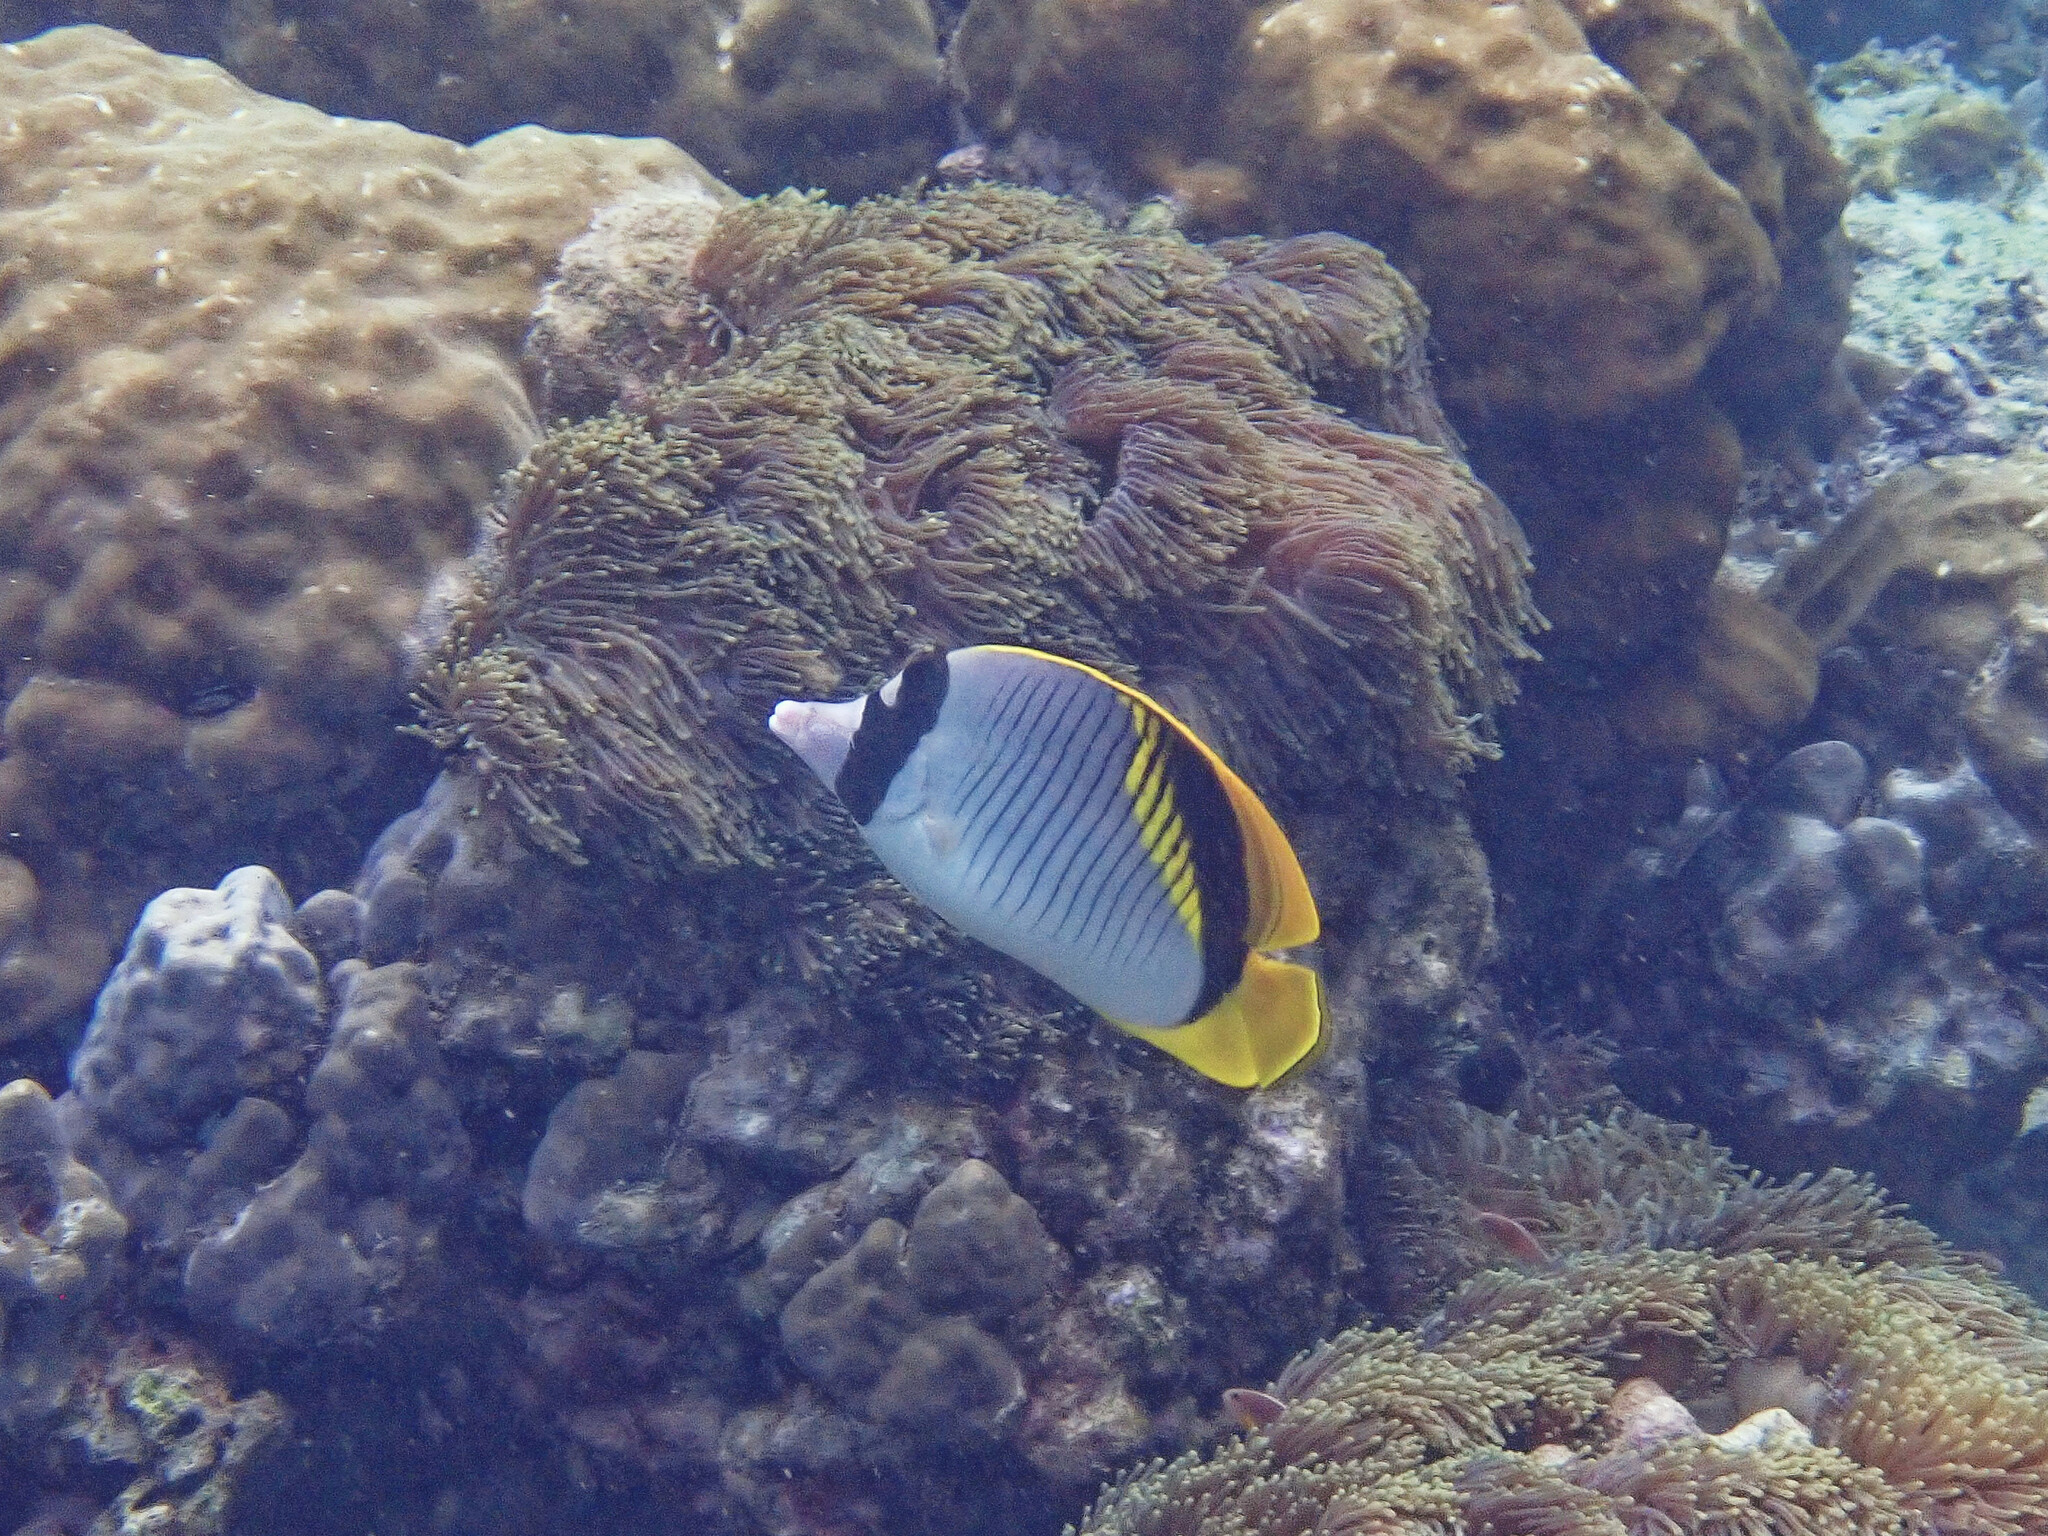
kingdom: Animalia
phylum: Chordata
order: Perciformes
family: Chaetodontidae
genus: Chaetodon
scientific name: Chaetodon lineolatus
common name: Lined butterflyfish
